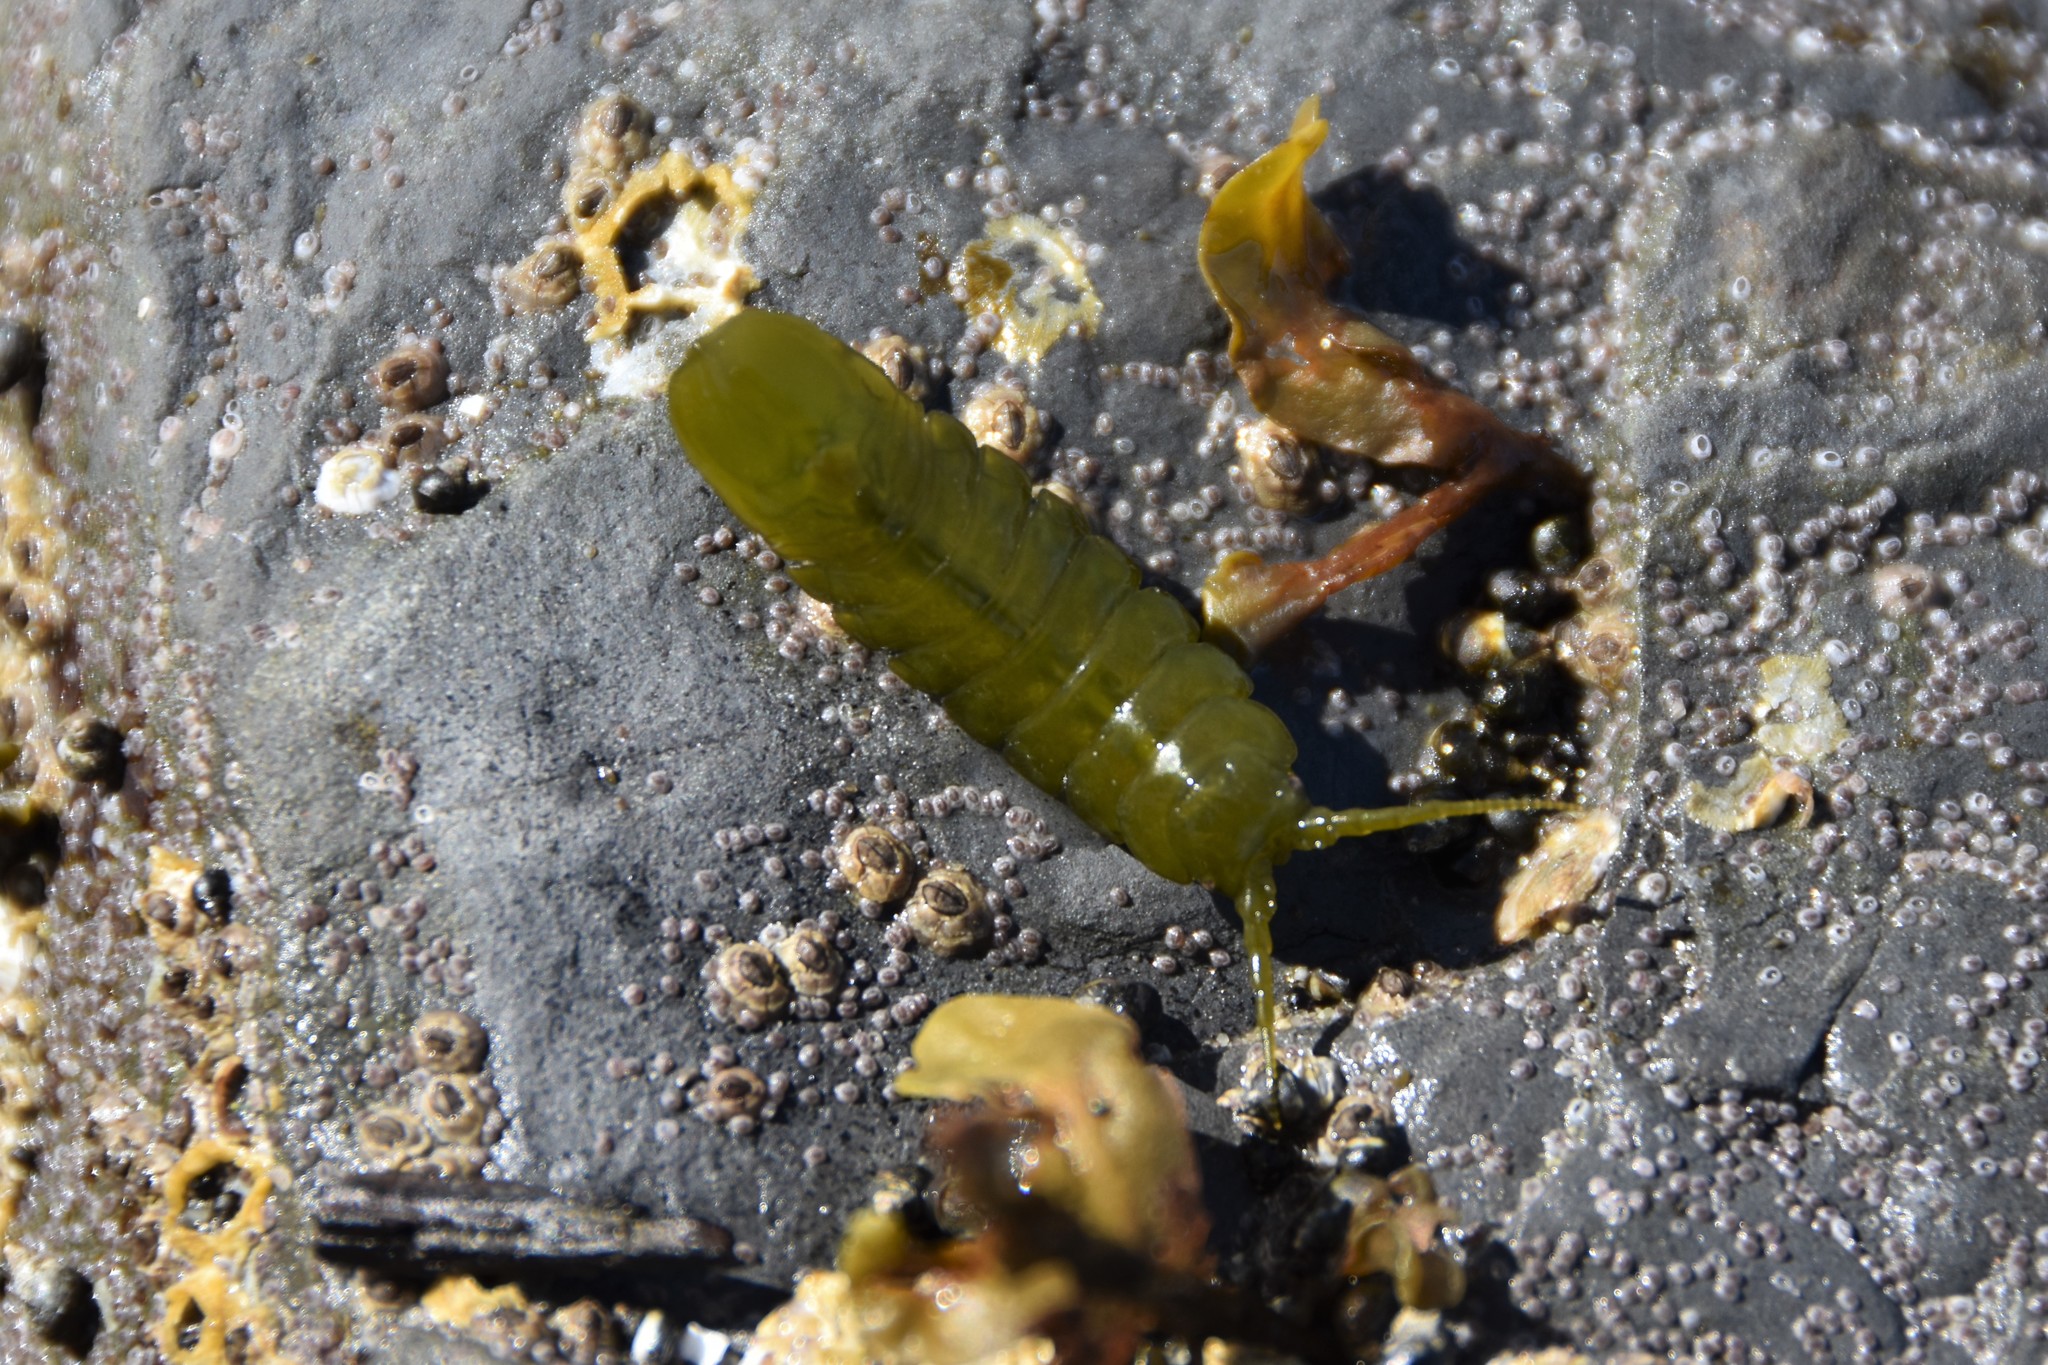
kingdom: Animalia
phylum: Arthropoda
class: Malacostraca
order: Isopoda
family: Idoteidae
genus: Pentidotea
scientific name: Pentidotea wosnesenskii
